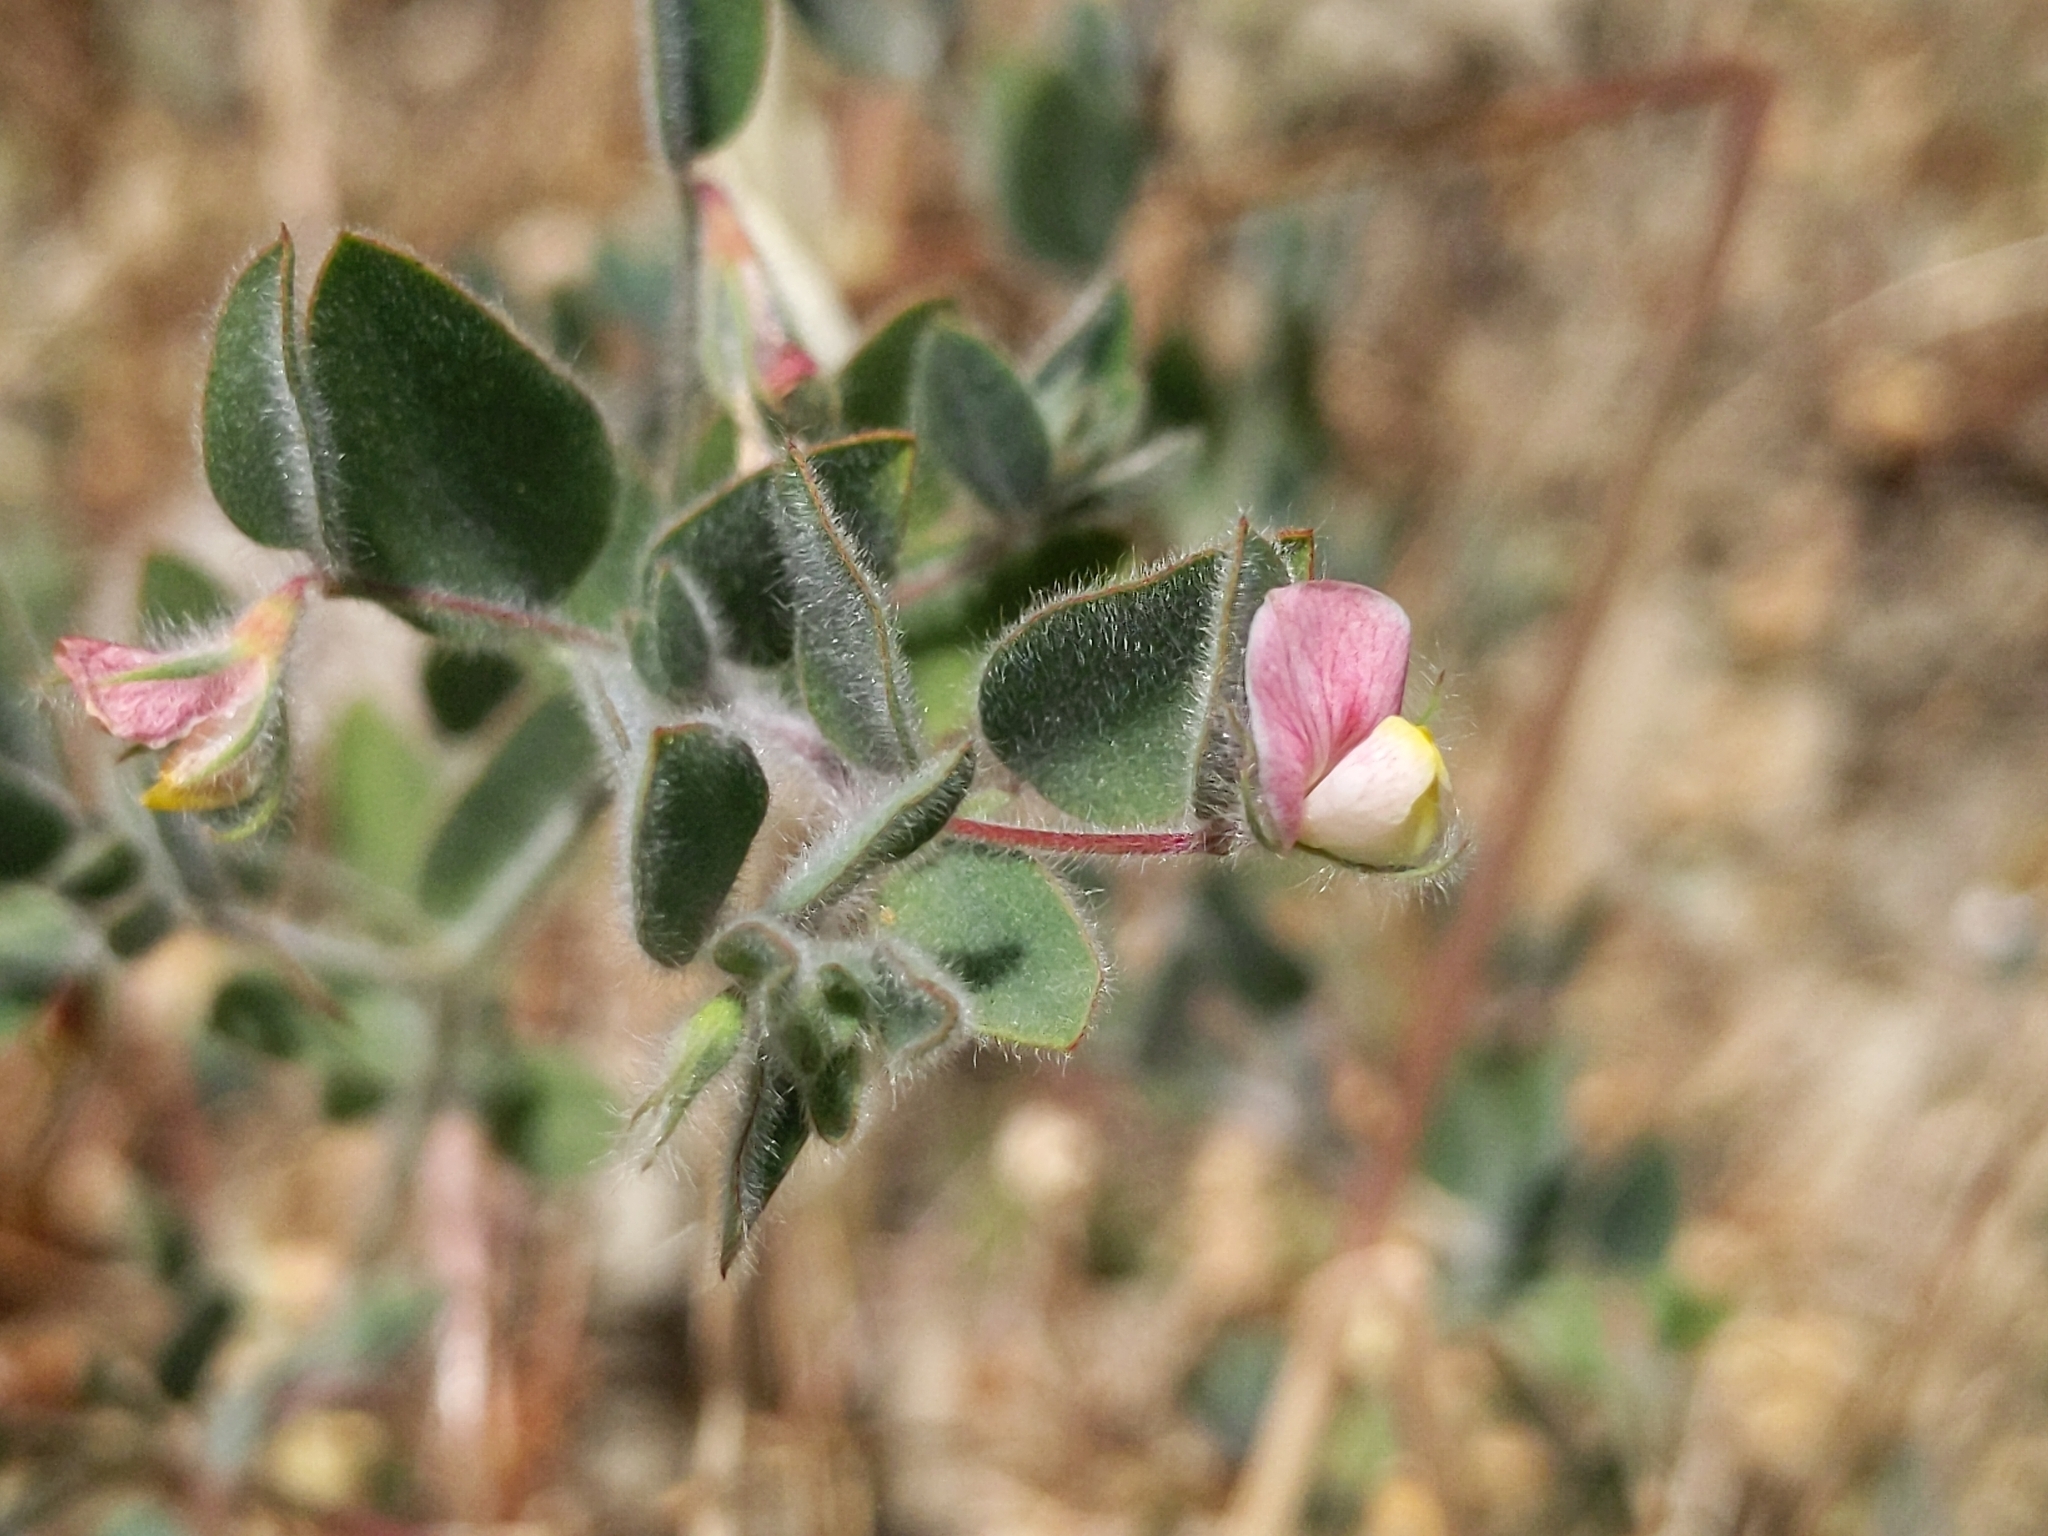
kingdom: Plantae
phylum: Tracheophyta
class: Magnoliopsida
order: Fabales
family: Fabaceae
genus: Acmispon
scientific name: Acmispon americanus
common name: American bird's-foot trefoil
